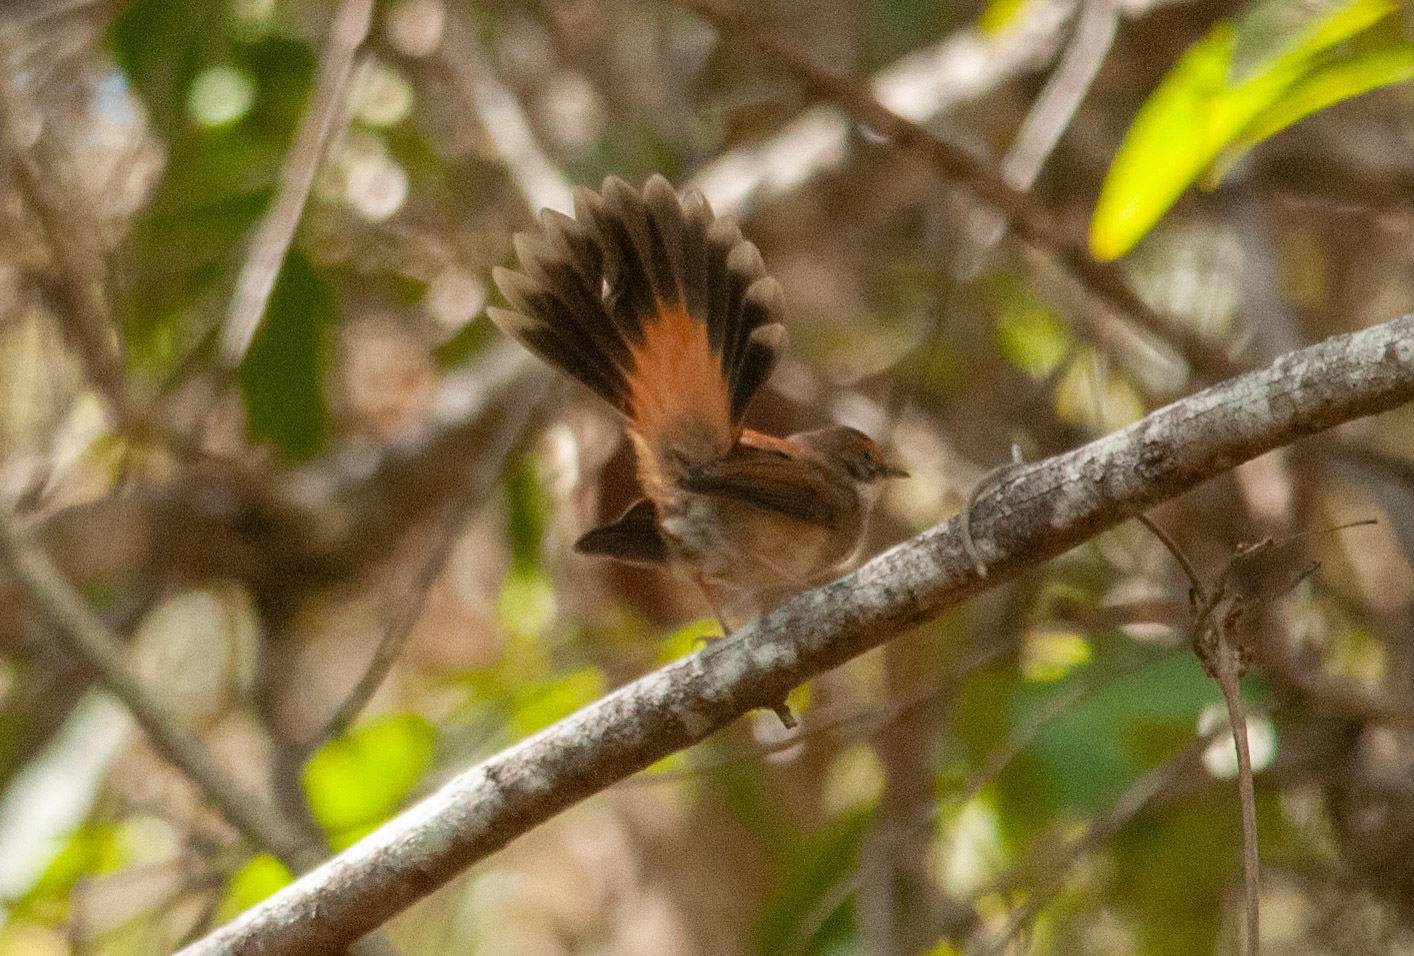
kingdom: Animalia
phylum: Chordata
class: Aves
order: Passeriformes
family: Rhipiduridae
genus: Rhipidura
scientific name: Rhipidura rufifrons
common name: Rufous fantail
